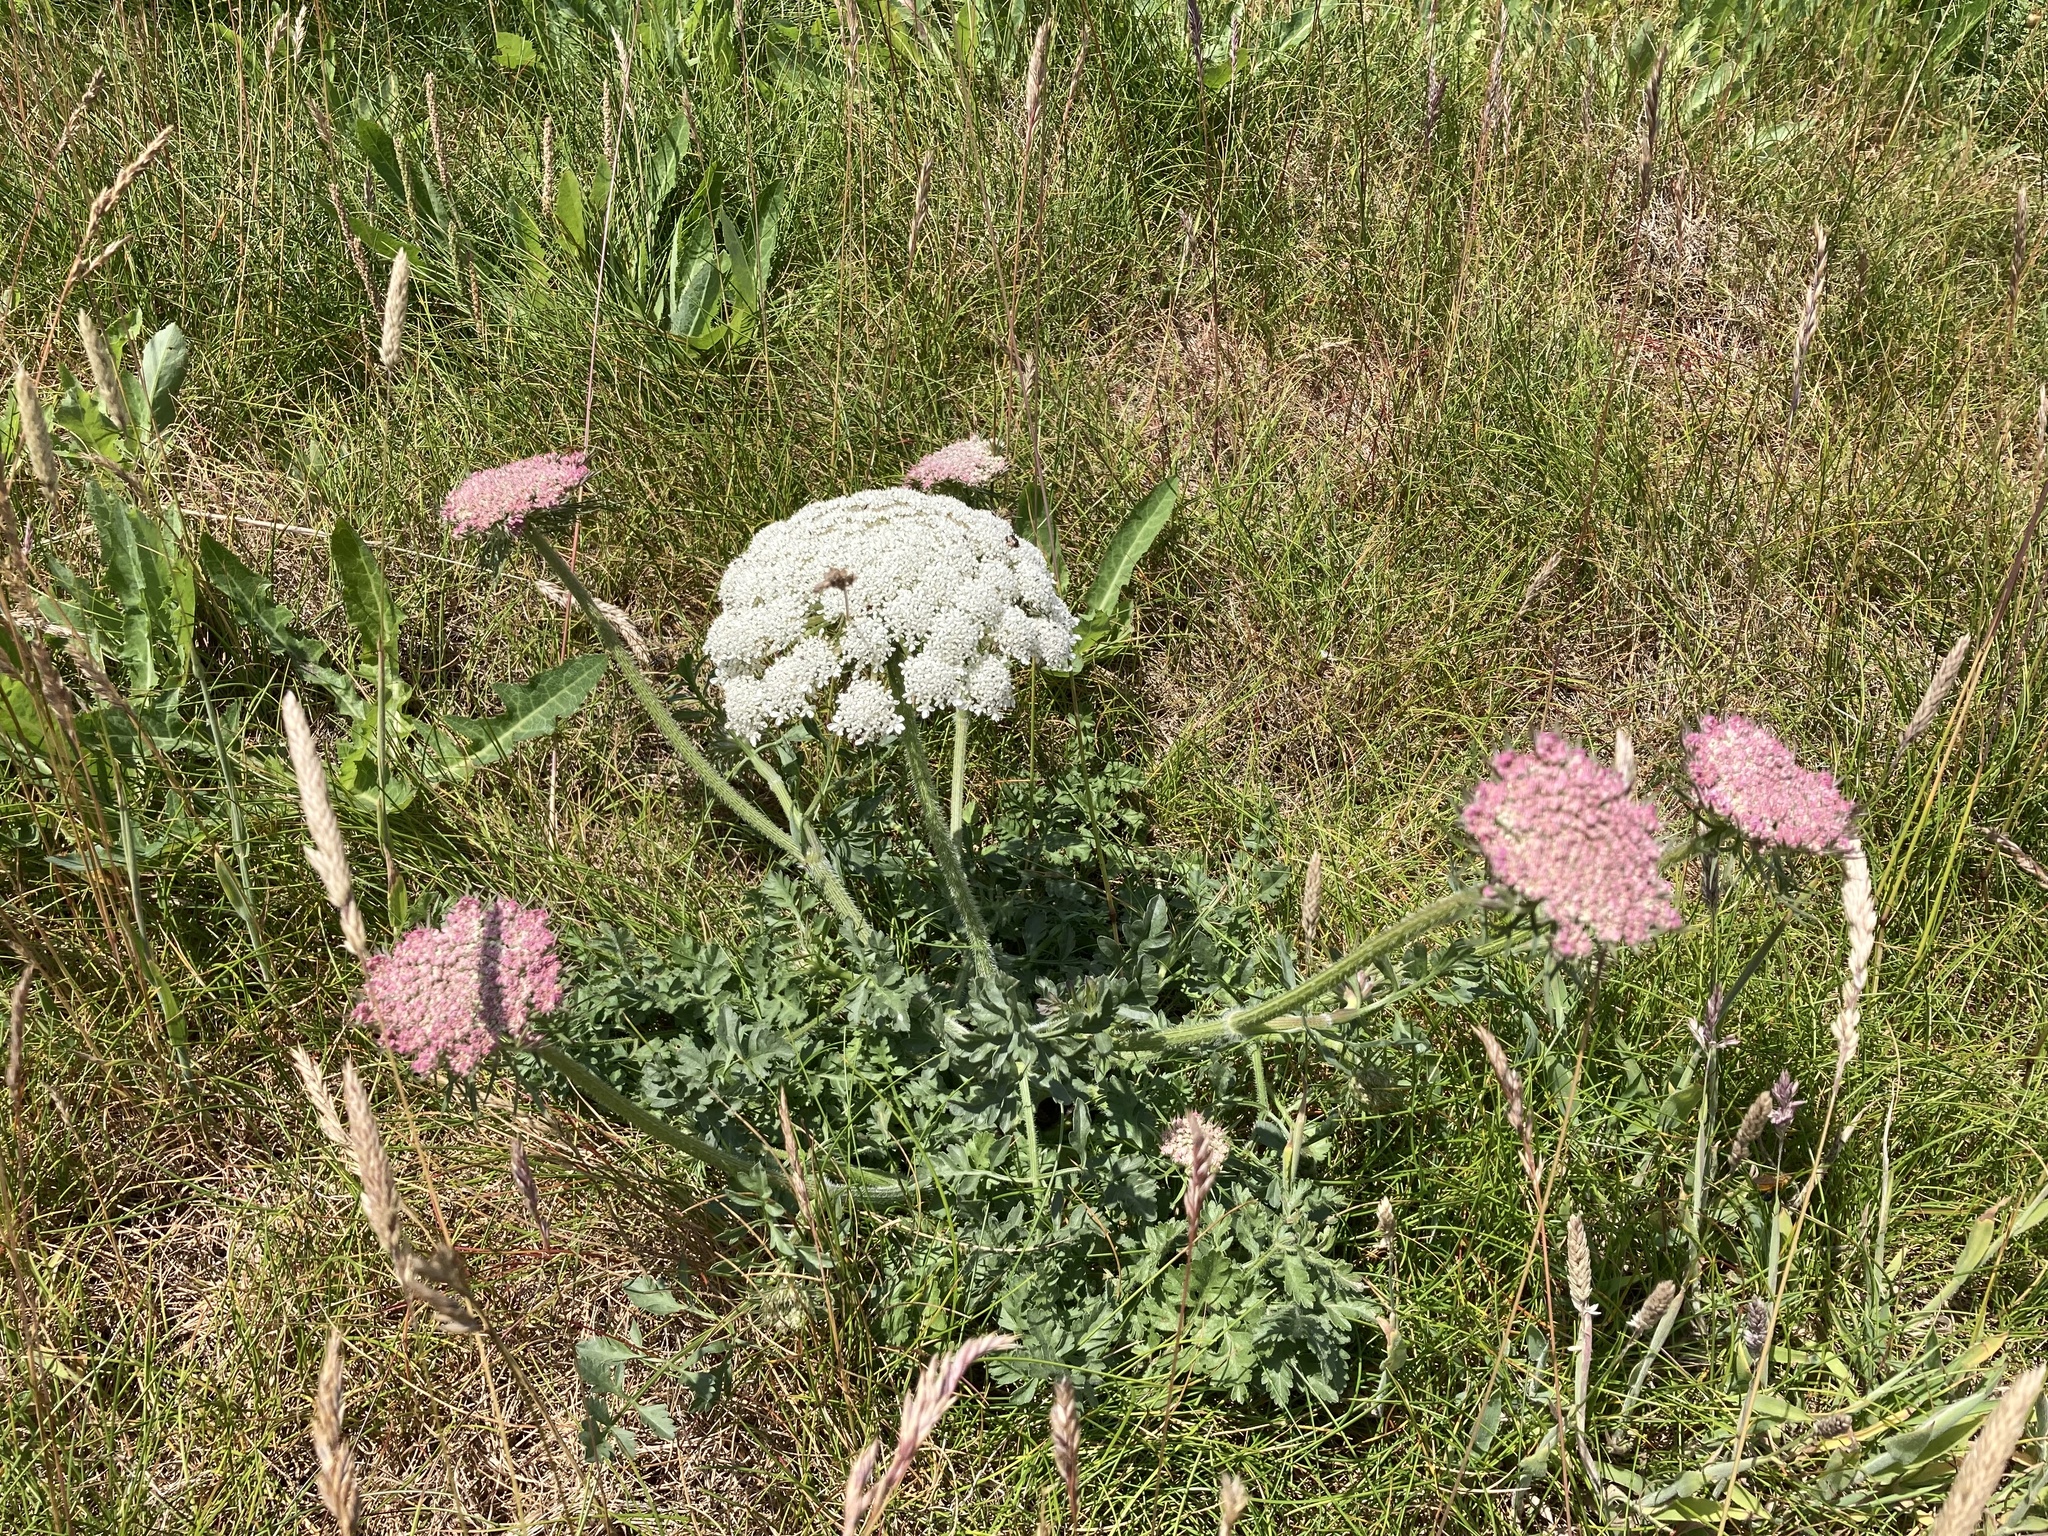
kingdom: Plantae
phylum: Tracheophyta
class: Magnoliopsida
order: Apiales
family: Apiaceae
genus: Daucus
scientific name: Daucus carota
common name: Wild carrot
